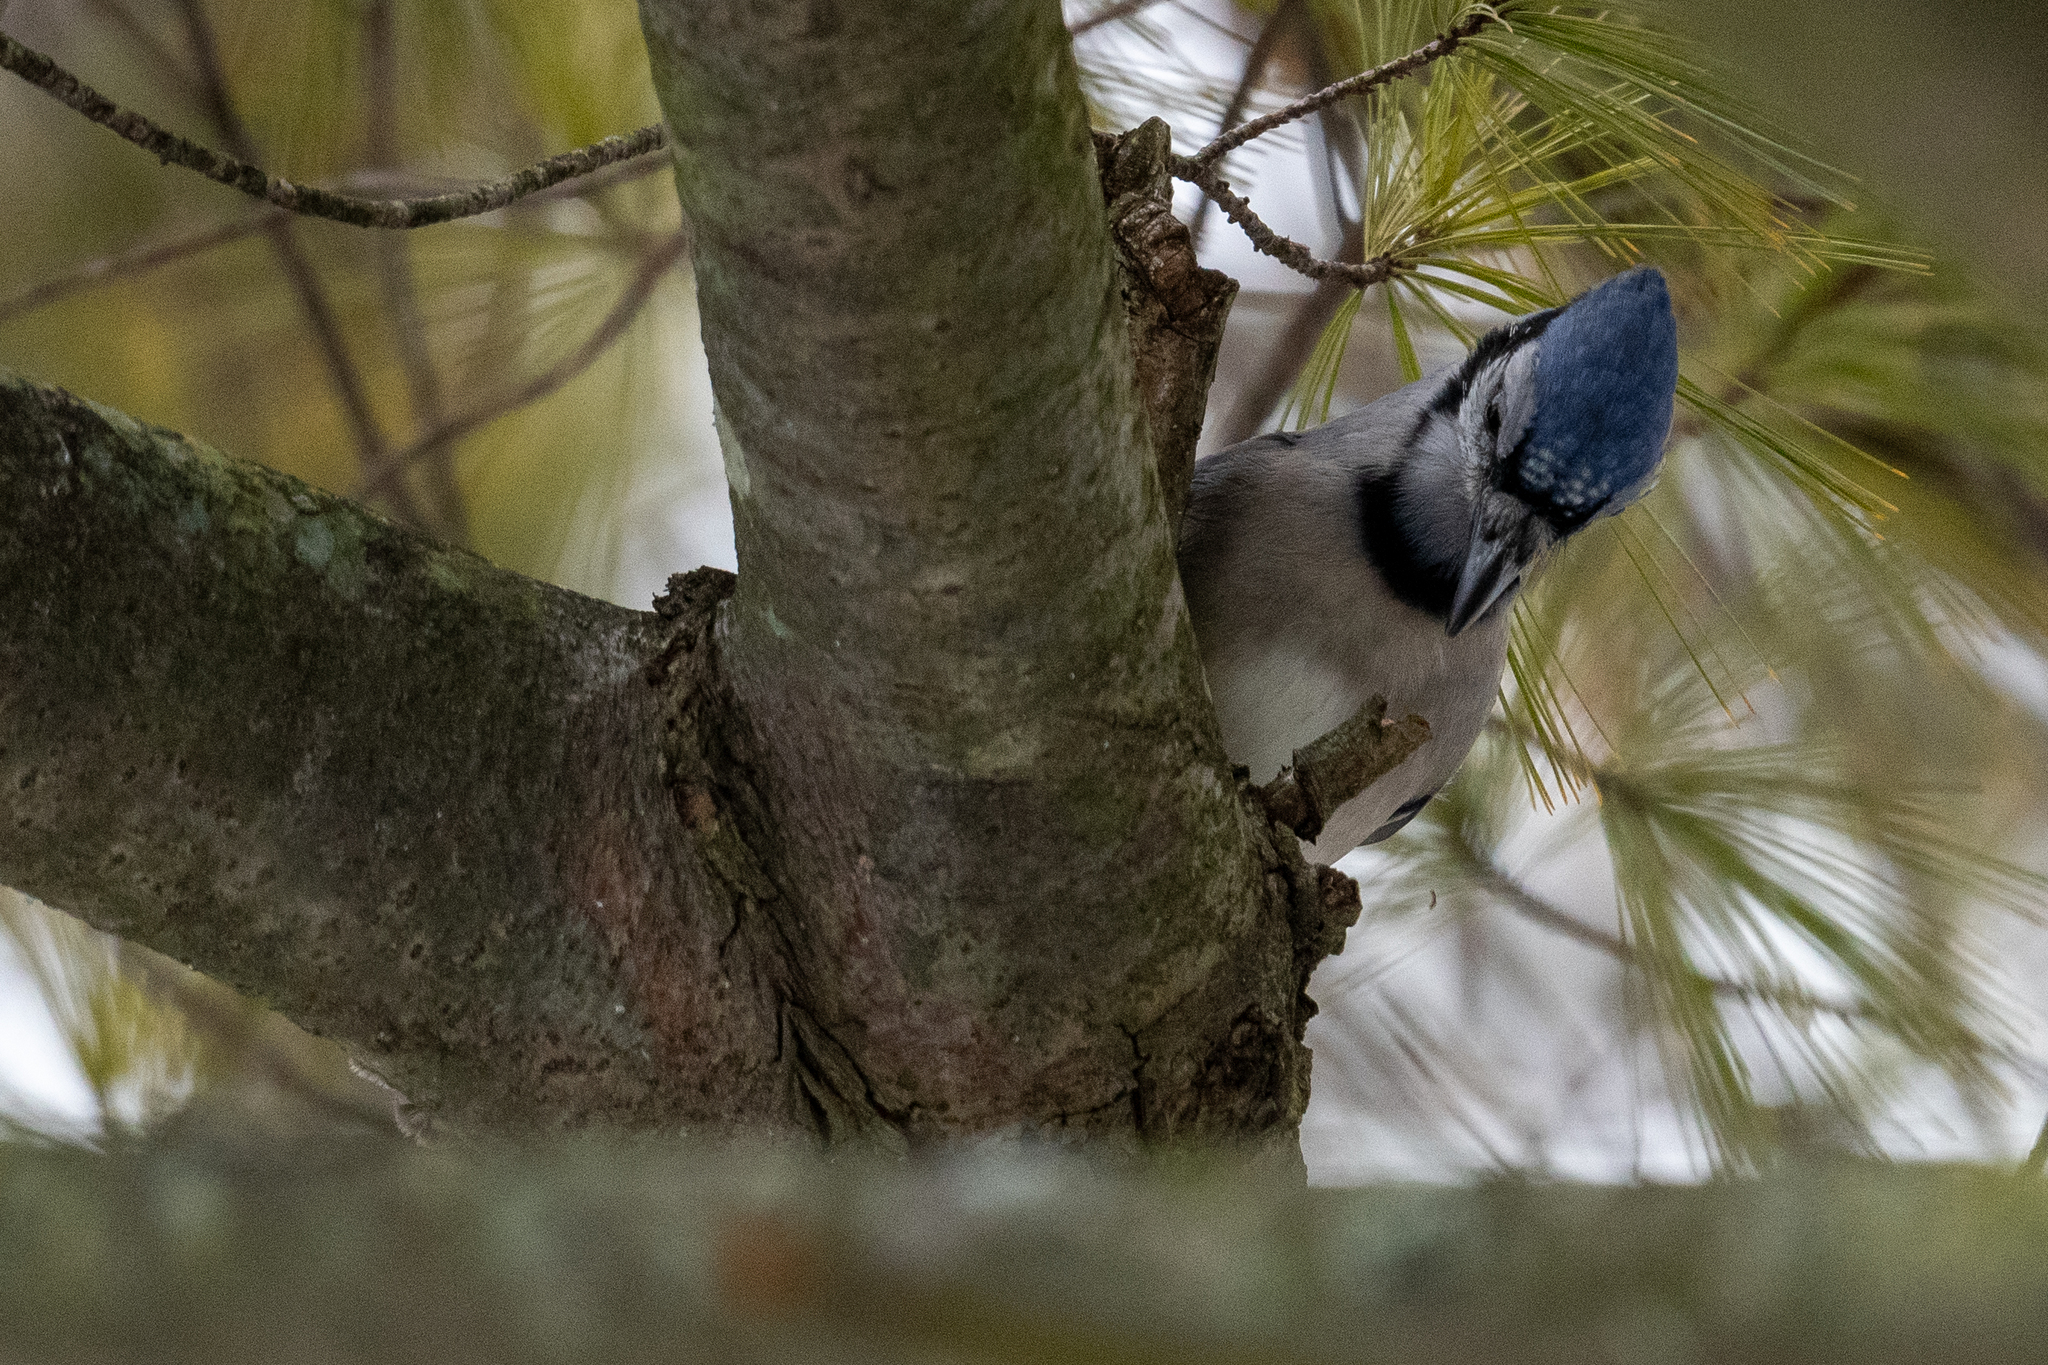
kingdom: Animalia
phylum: Chordata
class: Aves
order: Passeriformes
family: Corvidae
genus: Cyanocitta
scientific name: Cyanocitta cristata
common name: Blue jay
